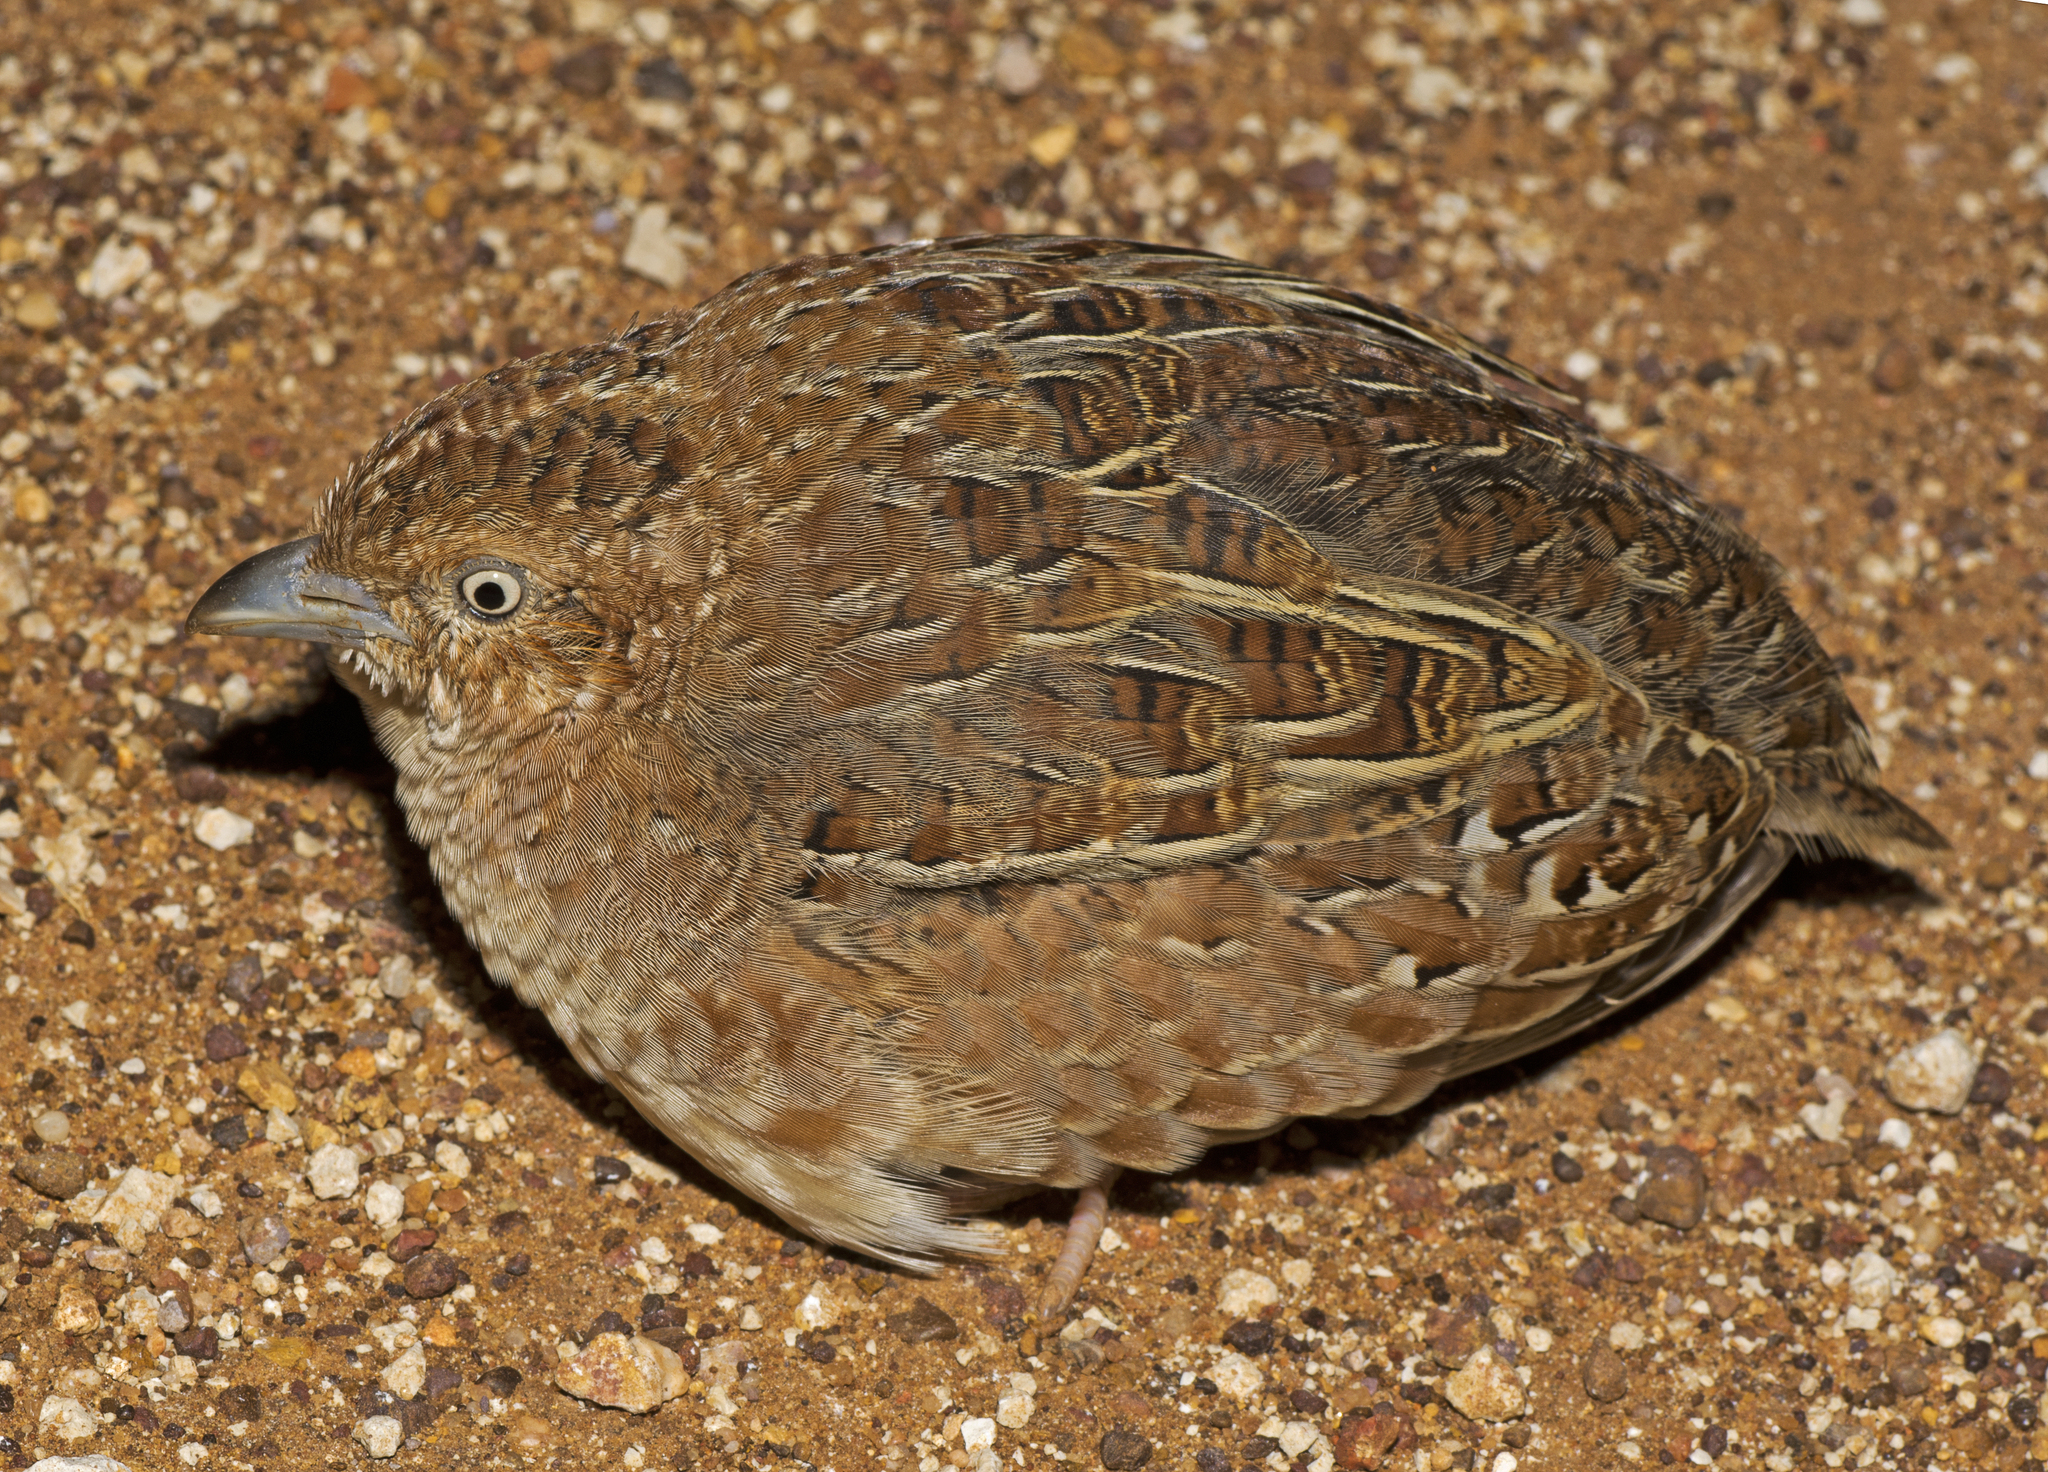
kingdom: Animalia
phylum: Chordata
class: Aves
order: Charadriiformes
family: Turnicidae
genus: Turnix
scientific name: Turnix velox
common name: Little buttonquail
